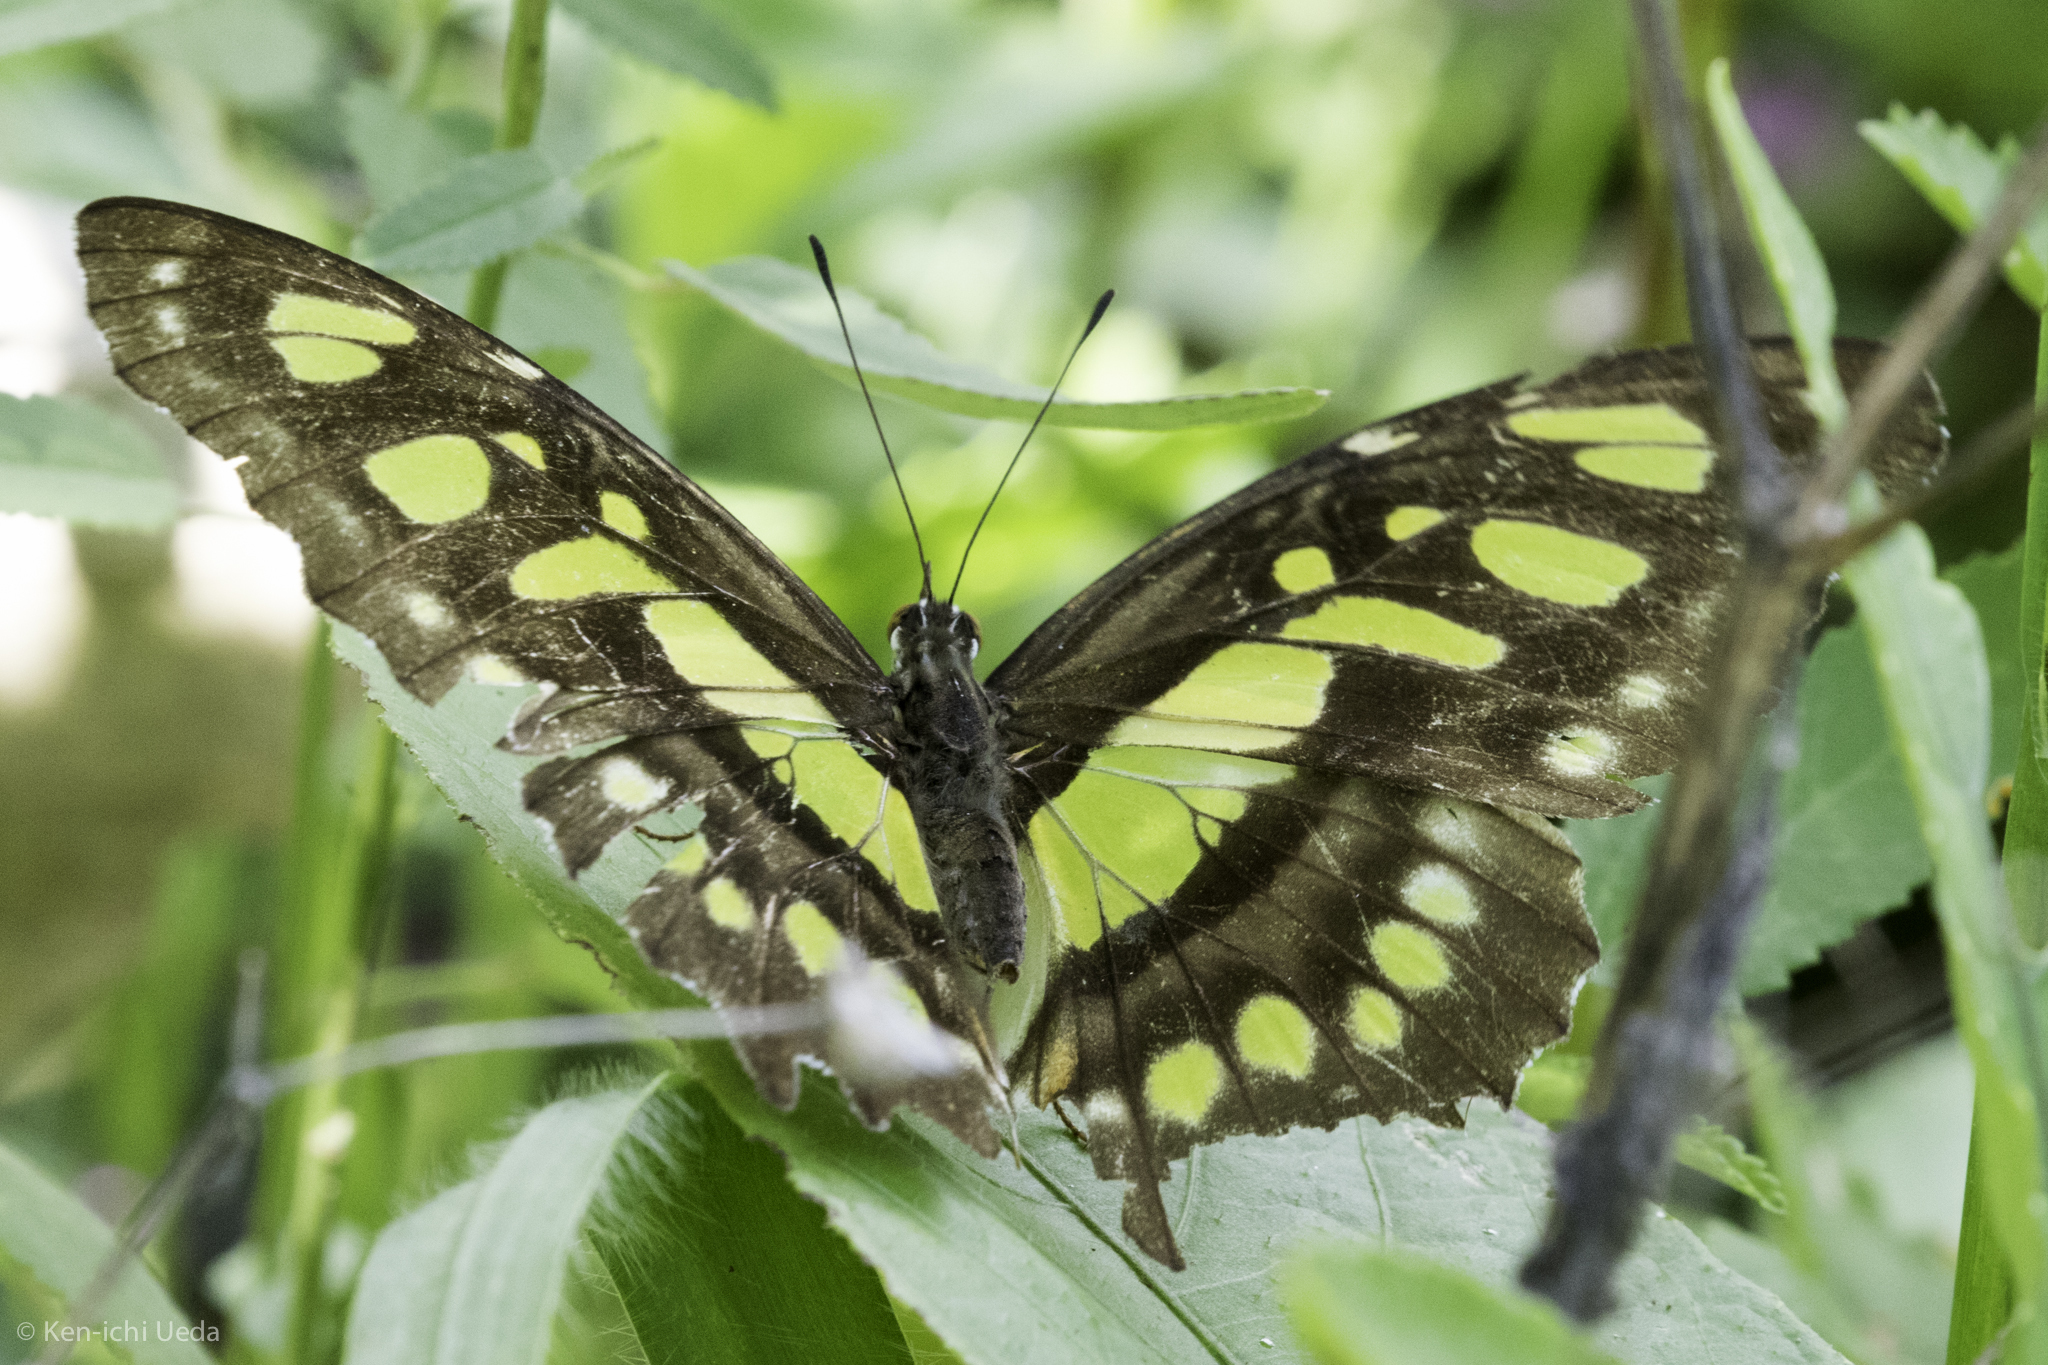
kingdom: Animalia
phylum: Arthropoda
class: Insecta
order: Lepidoptera
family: Nymphalidae
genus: Siproeta
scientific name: Siproeta stelenes
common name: Malachite
